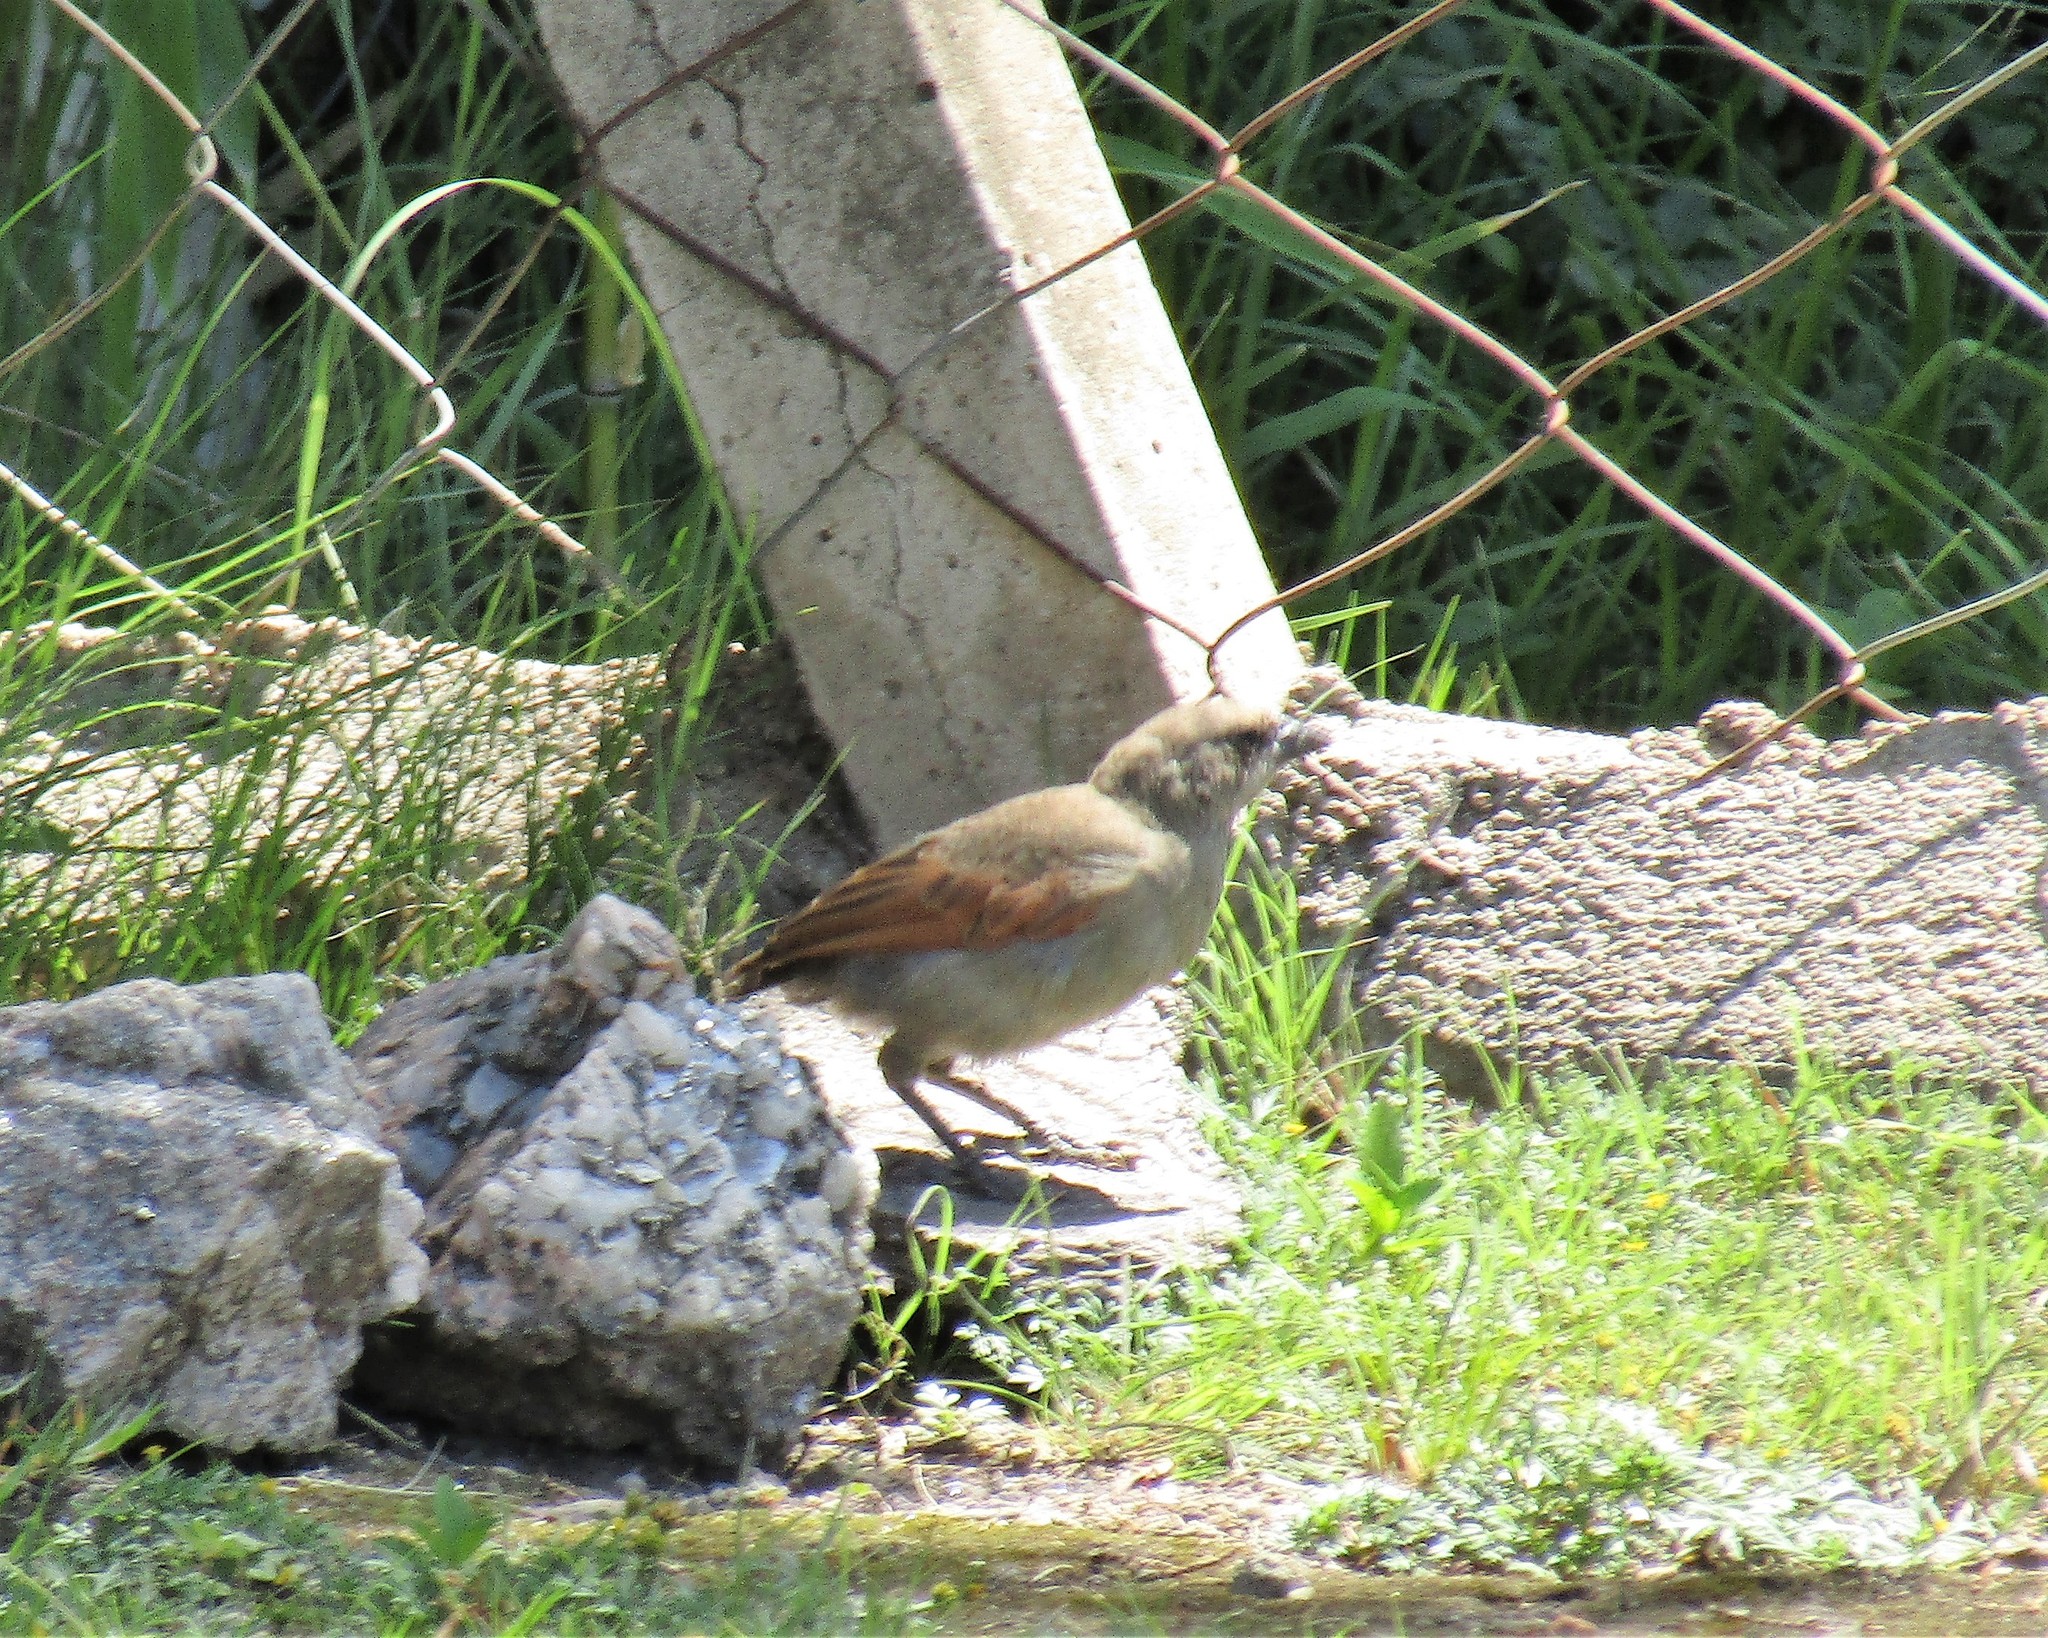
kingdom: Animalia
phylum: Chordata
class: Aves
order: Passeriformes
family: Icteridae
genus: Agelaioides
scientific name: Agelaioides badius
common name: Baywing
